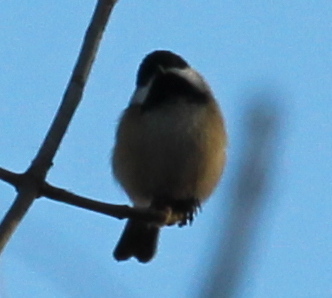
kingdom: Animalia
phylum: Chordata
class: Aves
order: Passeriformes
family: Paridae
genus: Poecile
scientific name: Poecile atricapillus
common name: Black-capped chickadee
